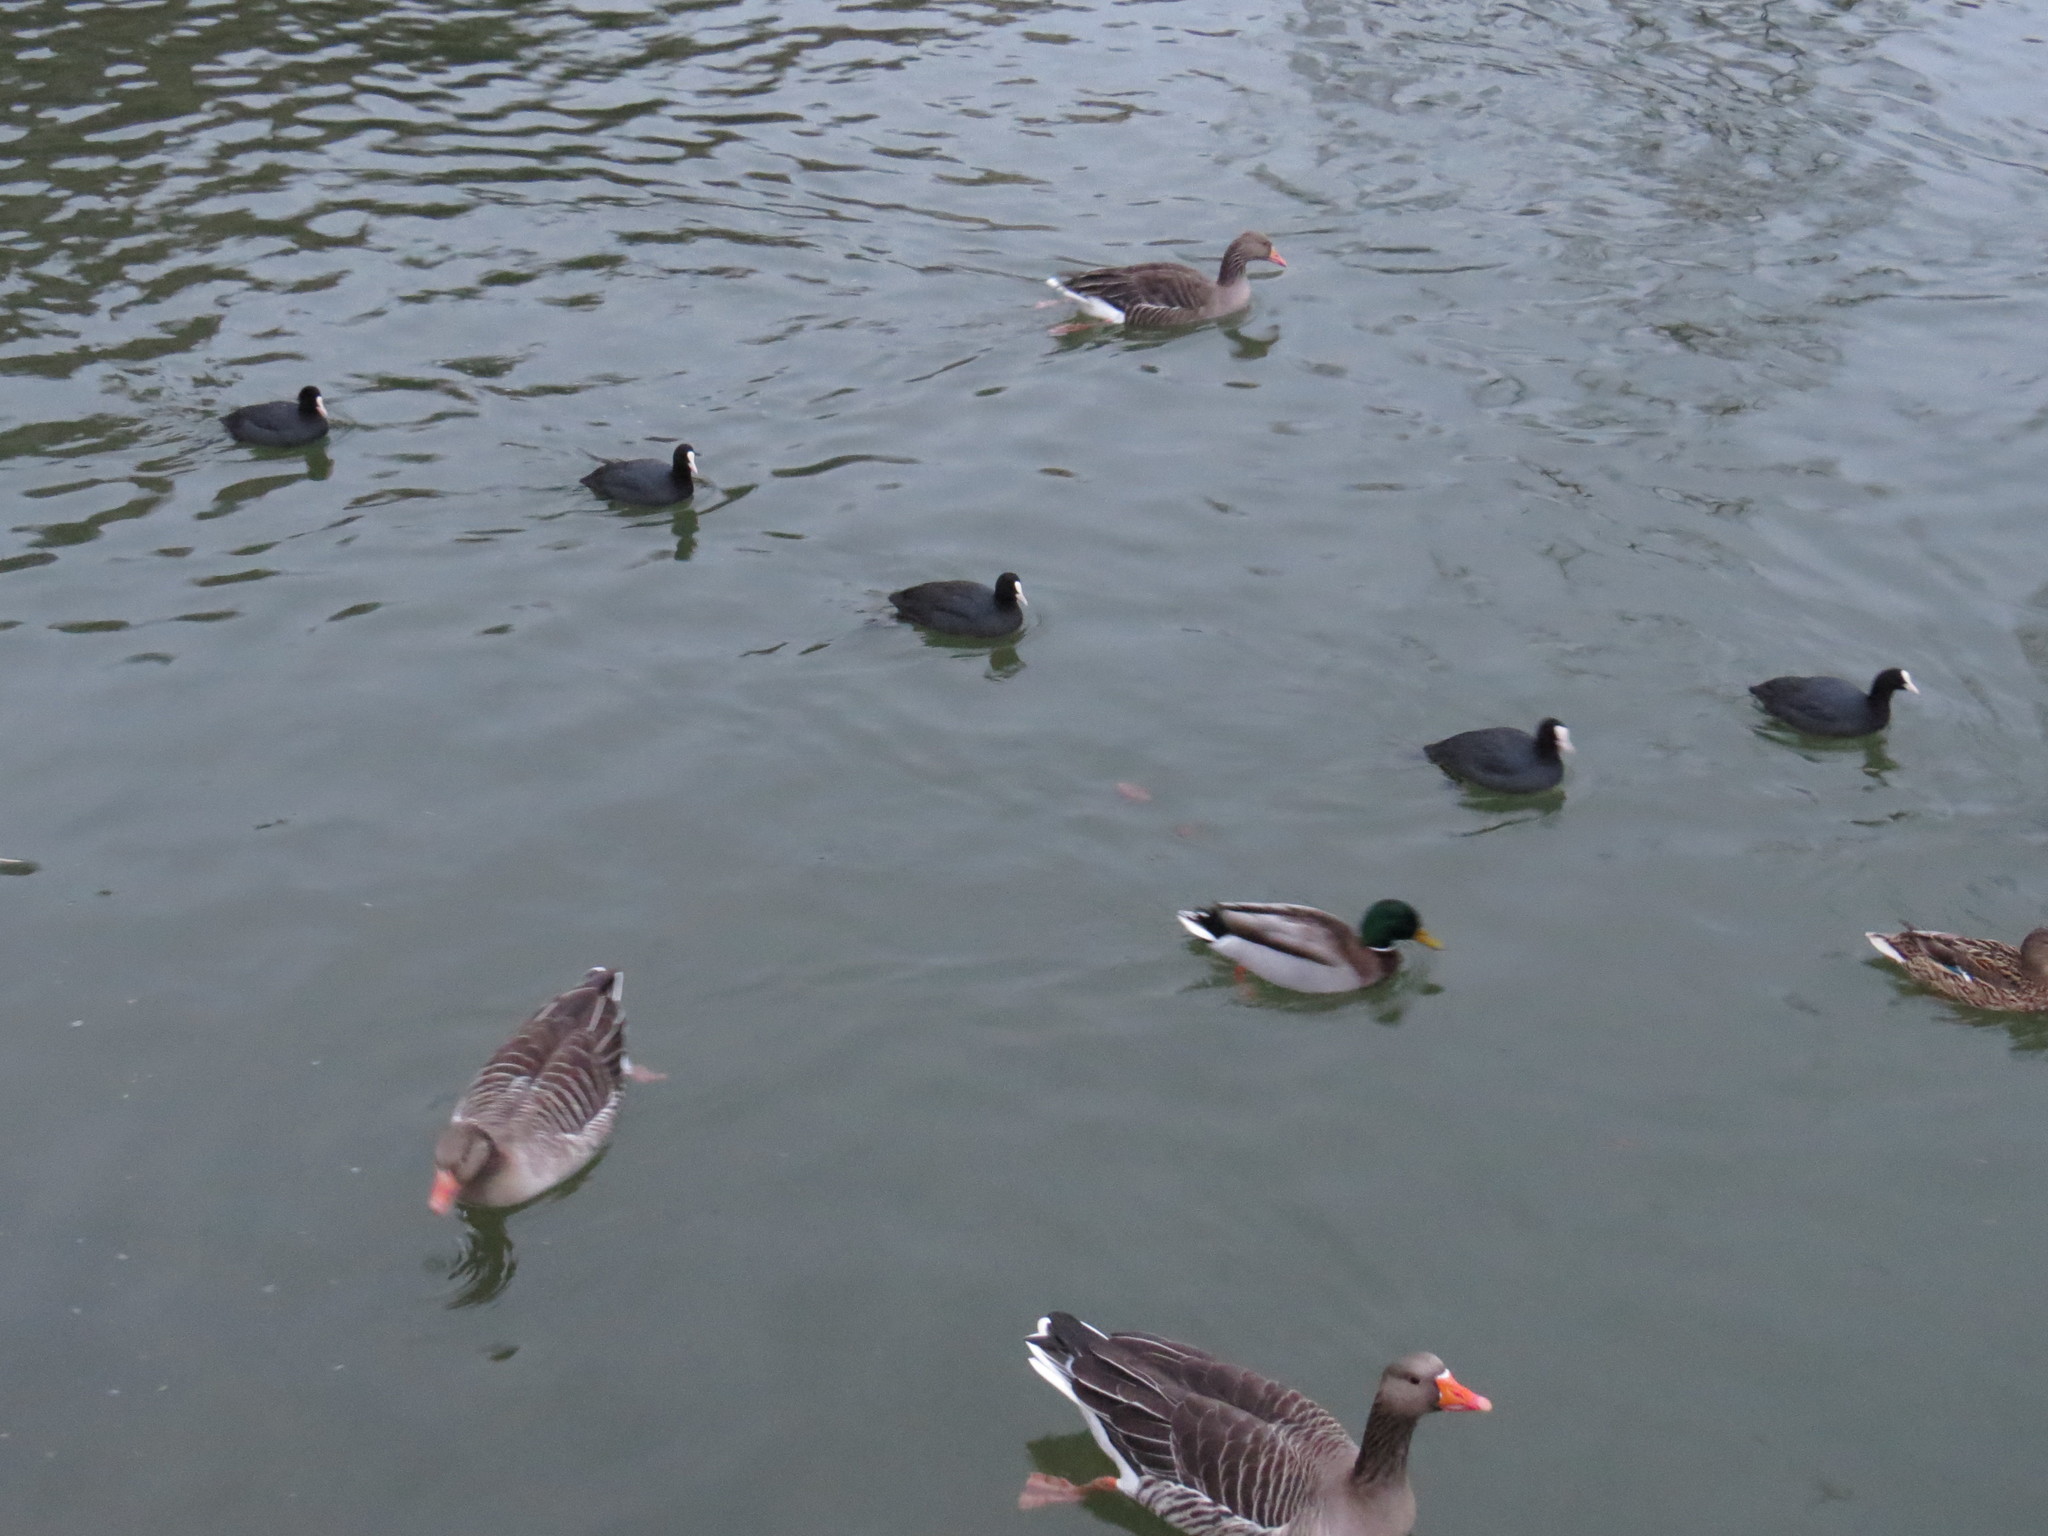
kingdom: Animalia
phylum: Chordata
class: Aves
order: Gruiformes
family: Rallidae
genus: Fulica
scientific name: Fulica atra
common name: Eurasian coot
